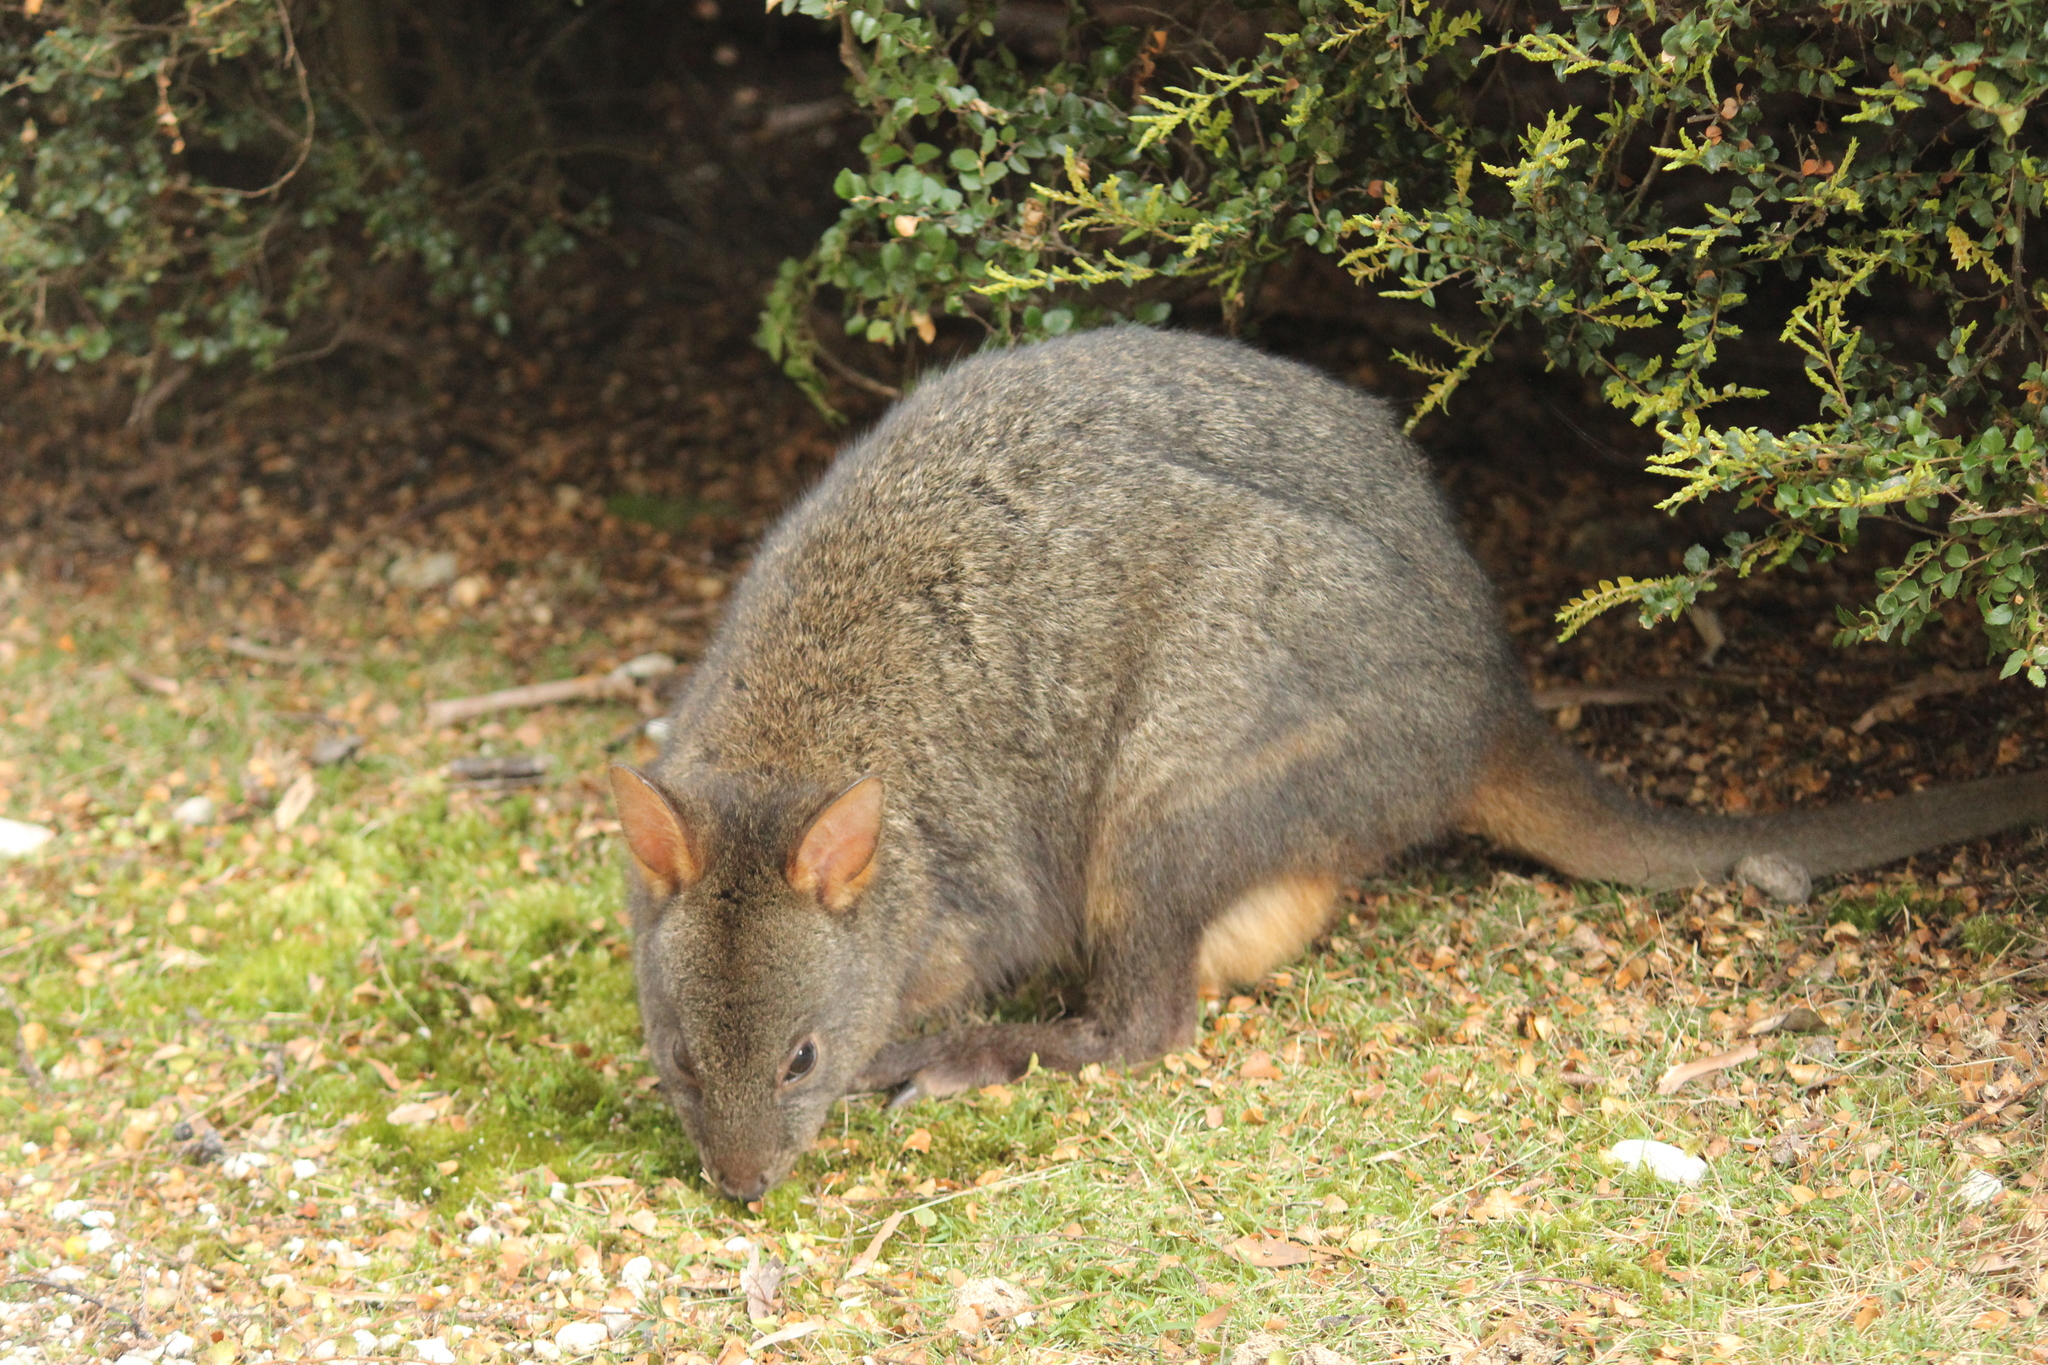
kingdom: Animalia
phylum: Chordata
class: Mammalia
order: Diprotodontia
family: Macropodidae
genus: Thylogale
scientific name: Thylogale billardierii
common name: Tasmanian pademelon
